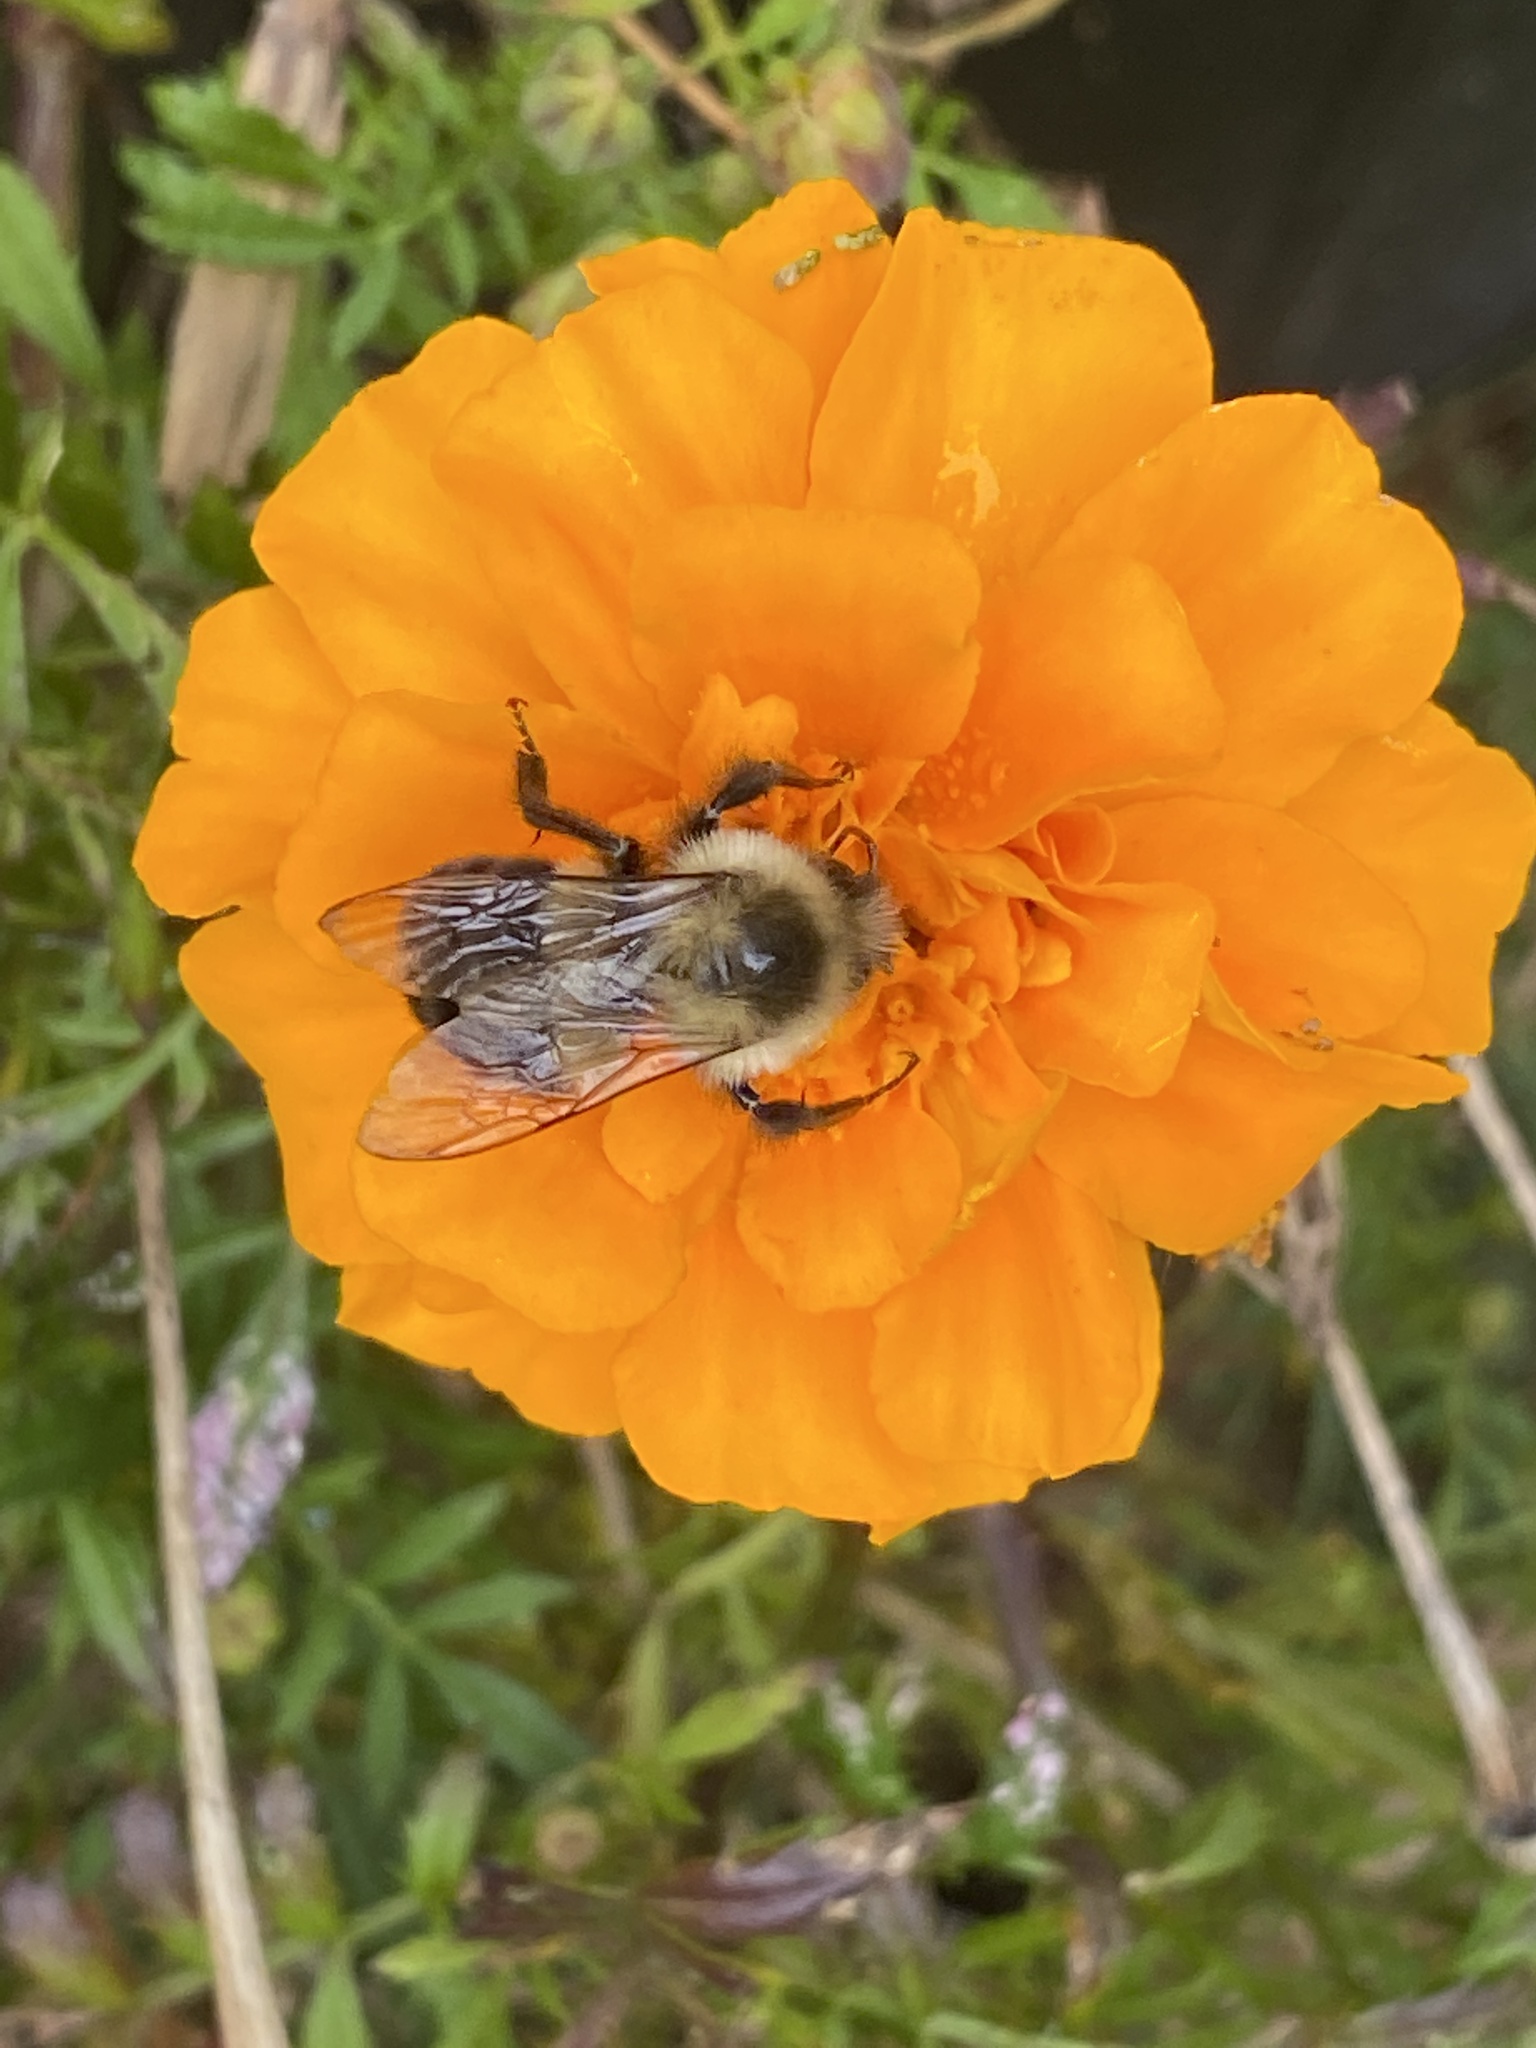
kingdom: Animalia
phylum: Arthropoda
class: Insecta
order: Hymenoptera
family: Apidae
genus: Bombus
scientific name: Bombus impatiens
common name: Common eastern bumble bee
